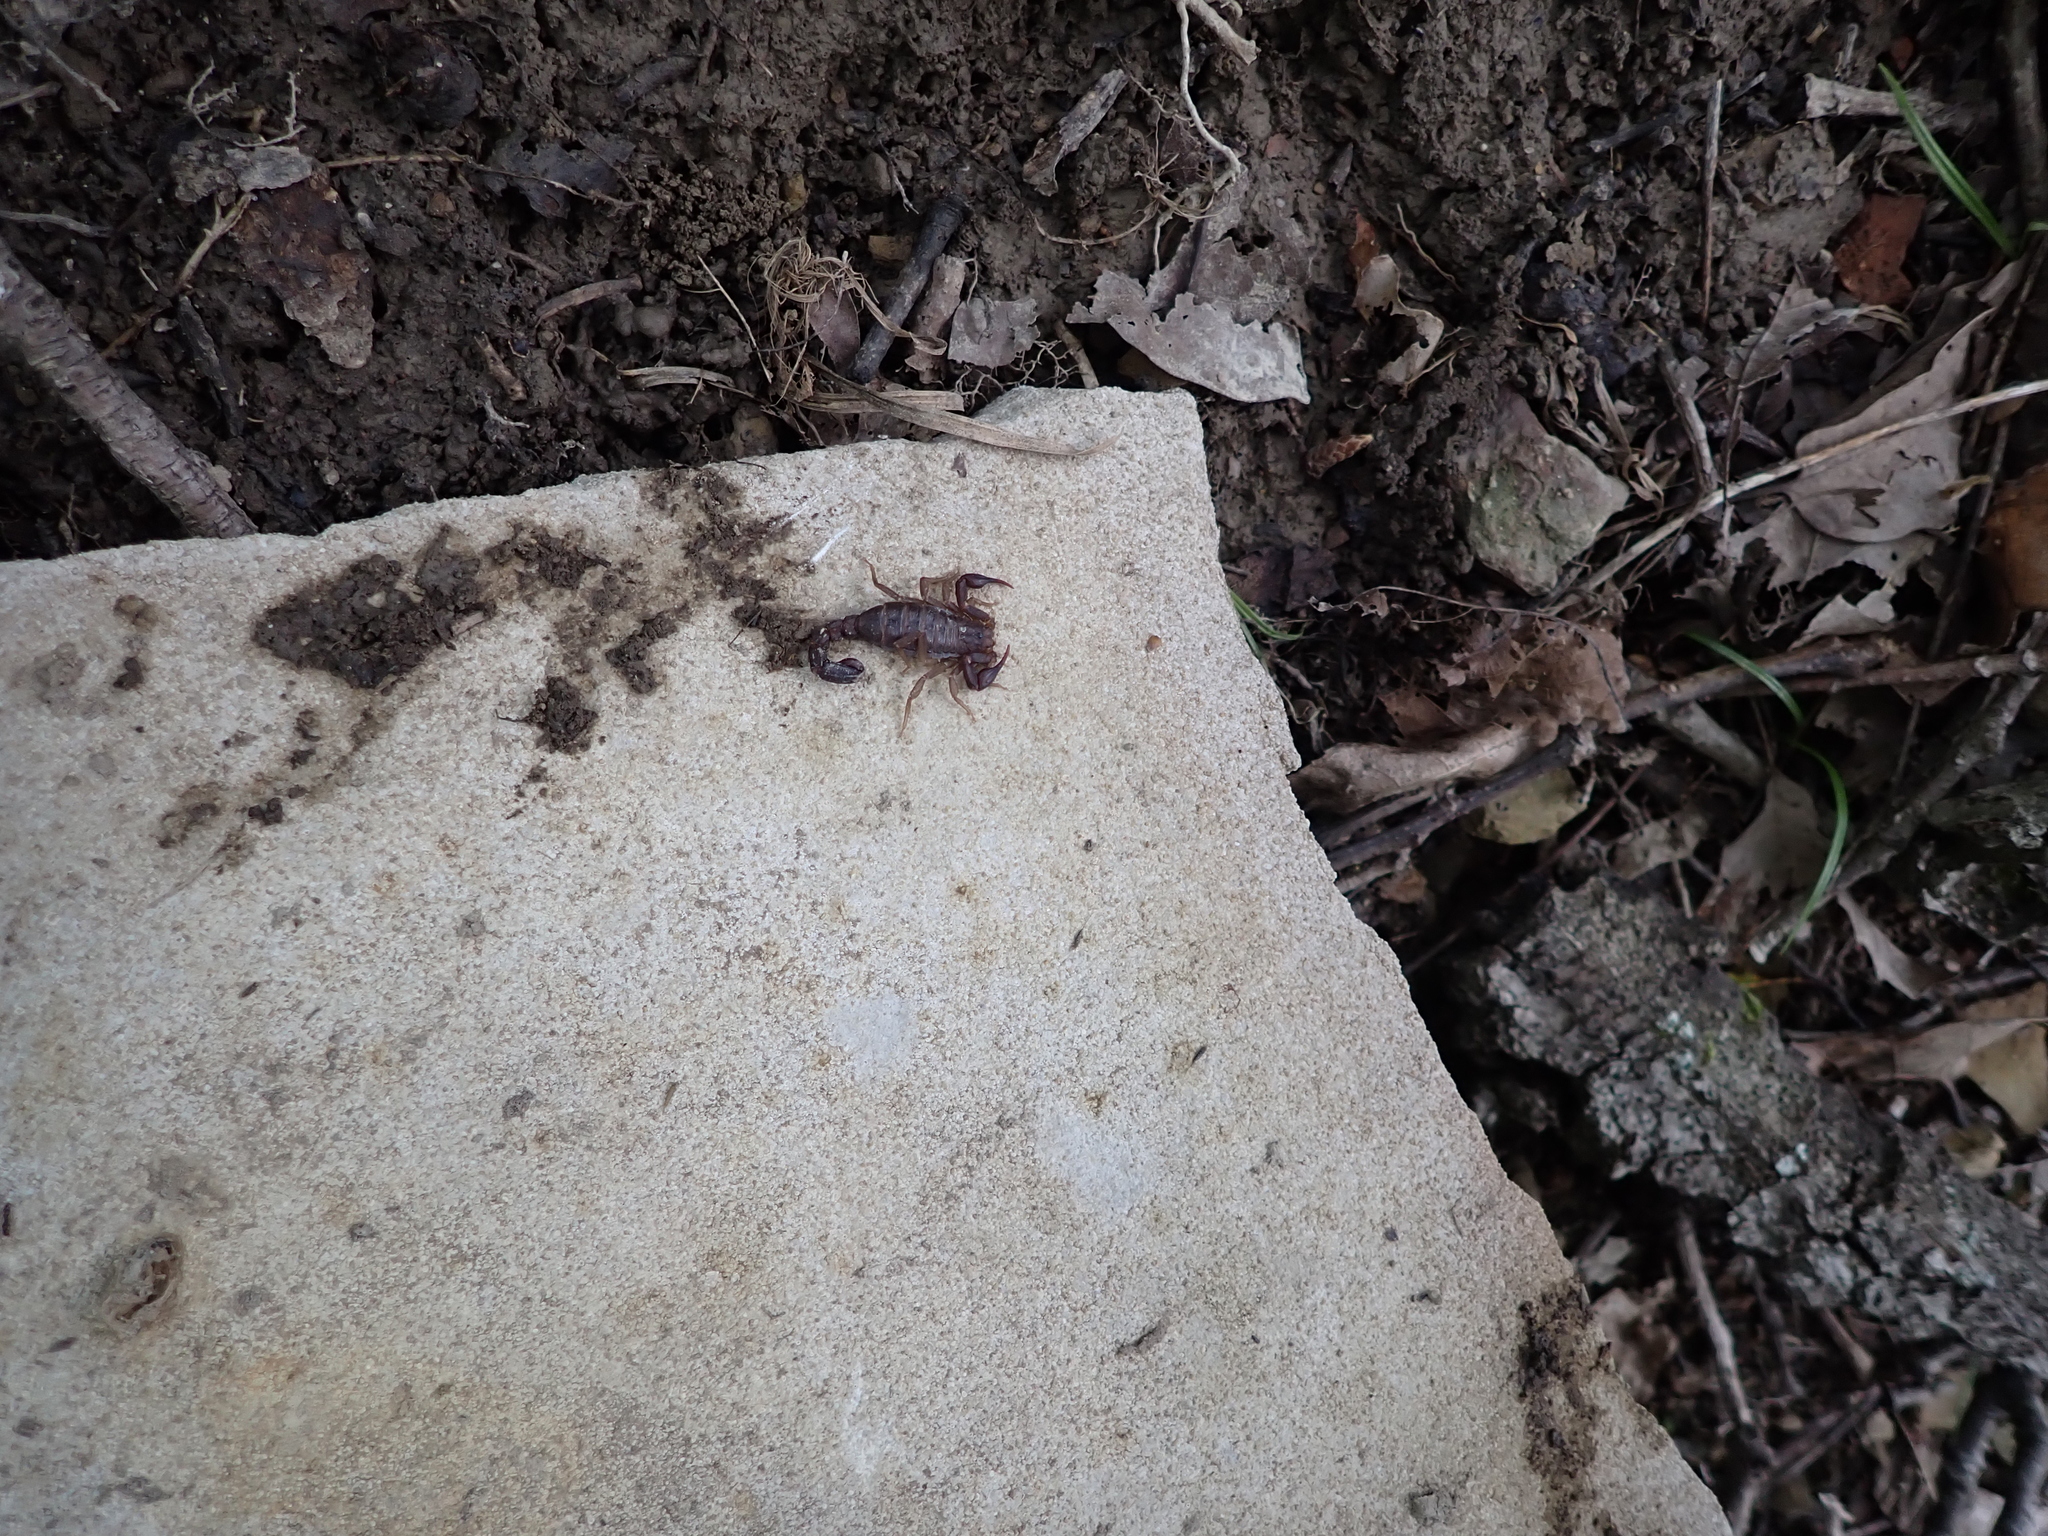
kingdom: Animalia
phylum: Arthropoda
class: Arachnida
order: Scorpiones
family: Vaejovidae
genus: Vaejovis
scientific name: Vaejovis carolinianus
